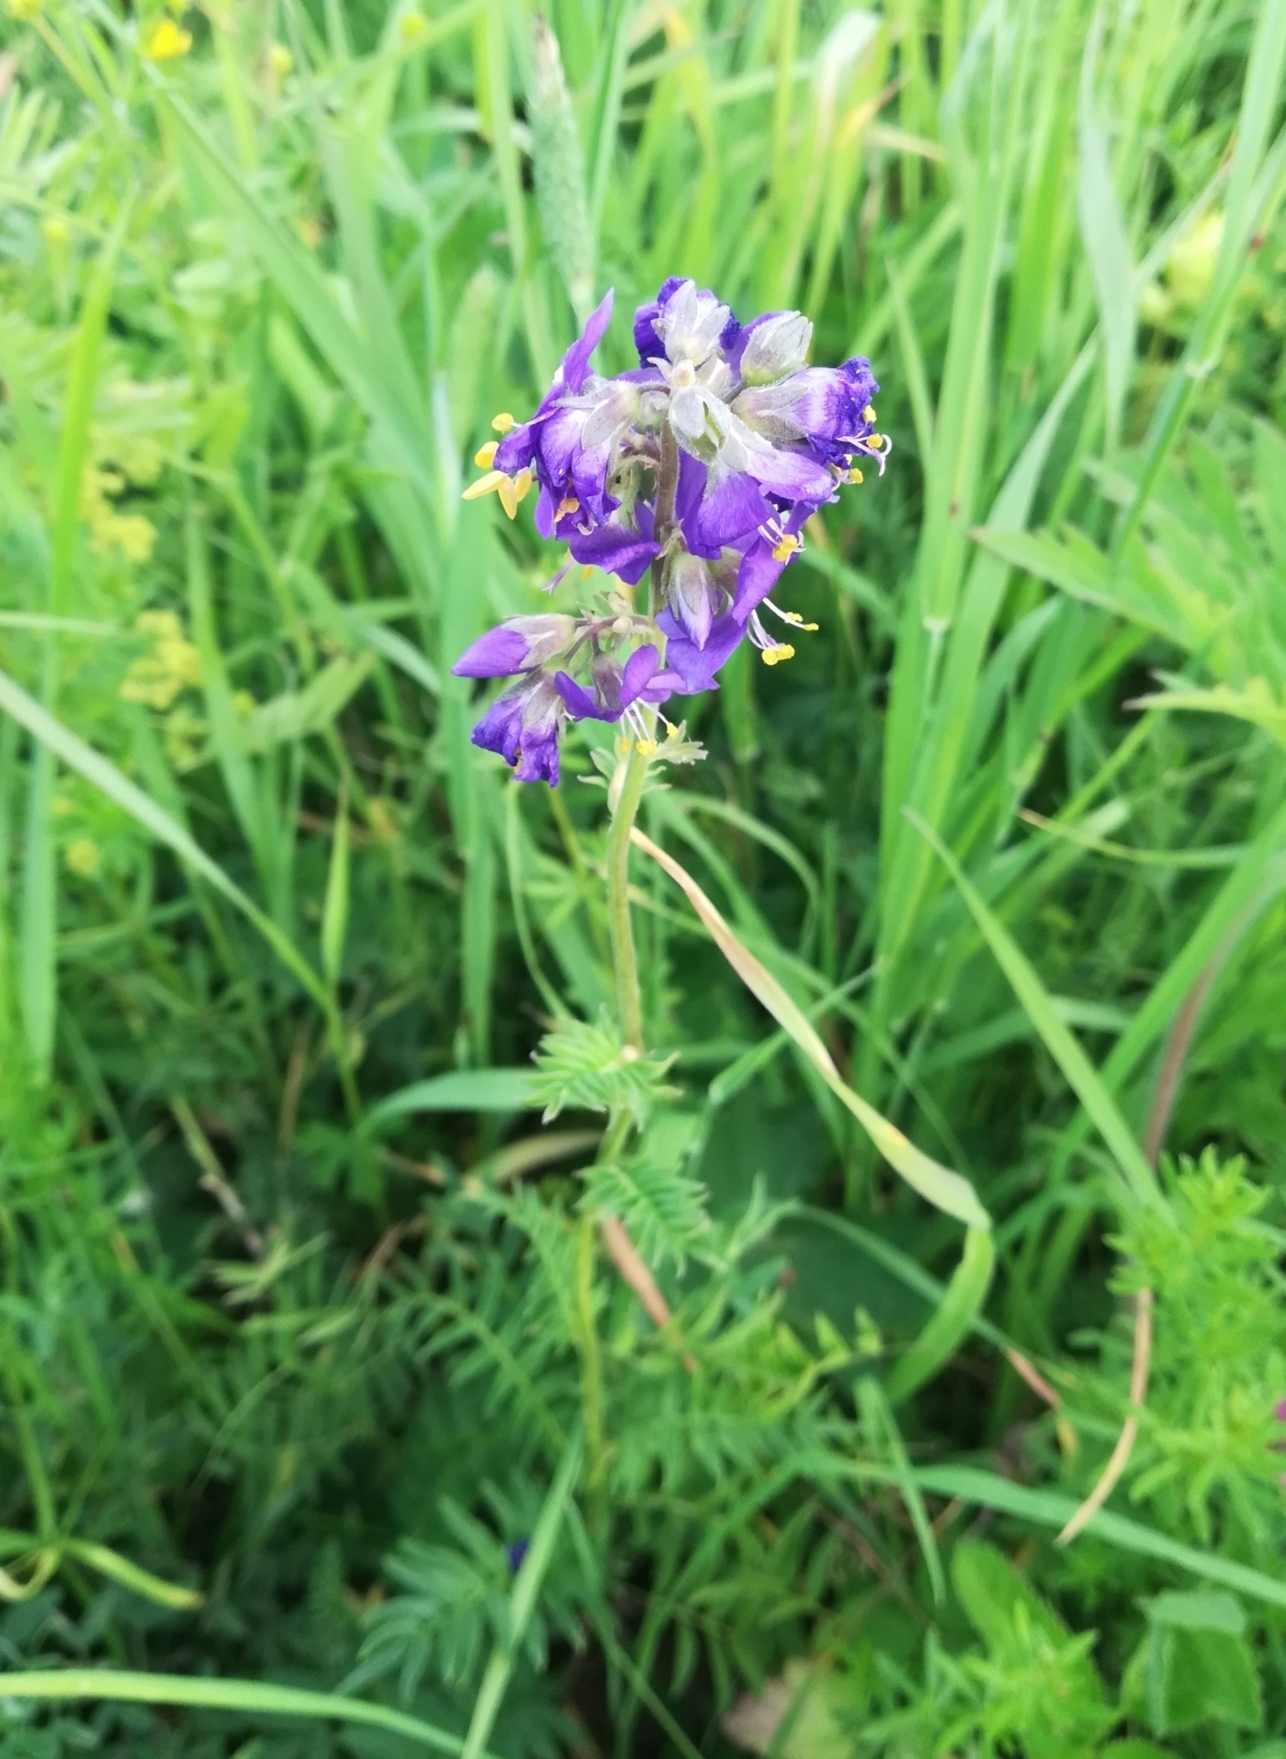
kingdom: Plantae
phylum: Tracheophyta
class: Magnoliopsida
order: Ericales
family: Polemoniaceae
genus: Polemonium
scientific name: Polemonium caeruleum
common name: Jacob's-ladder
